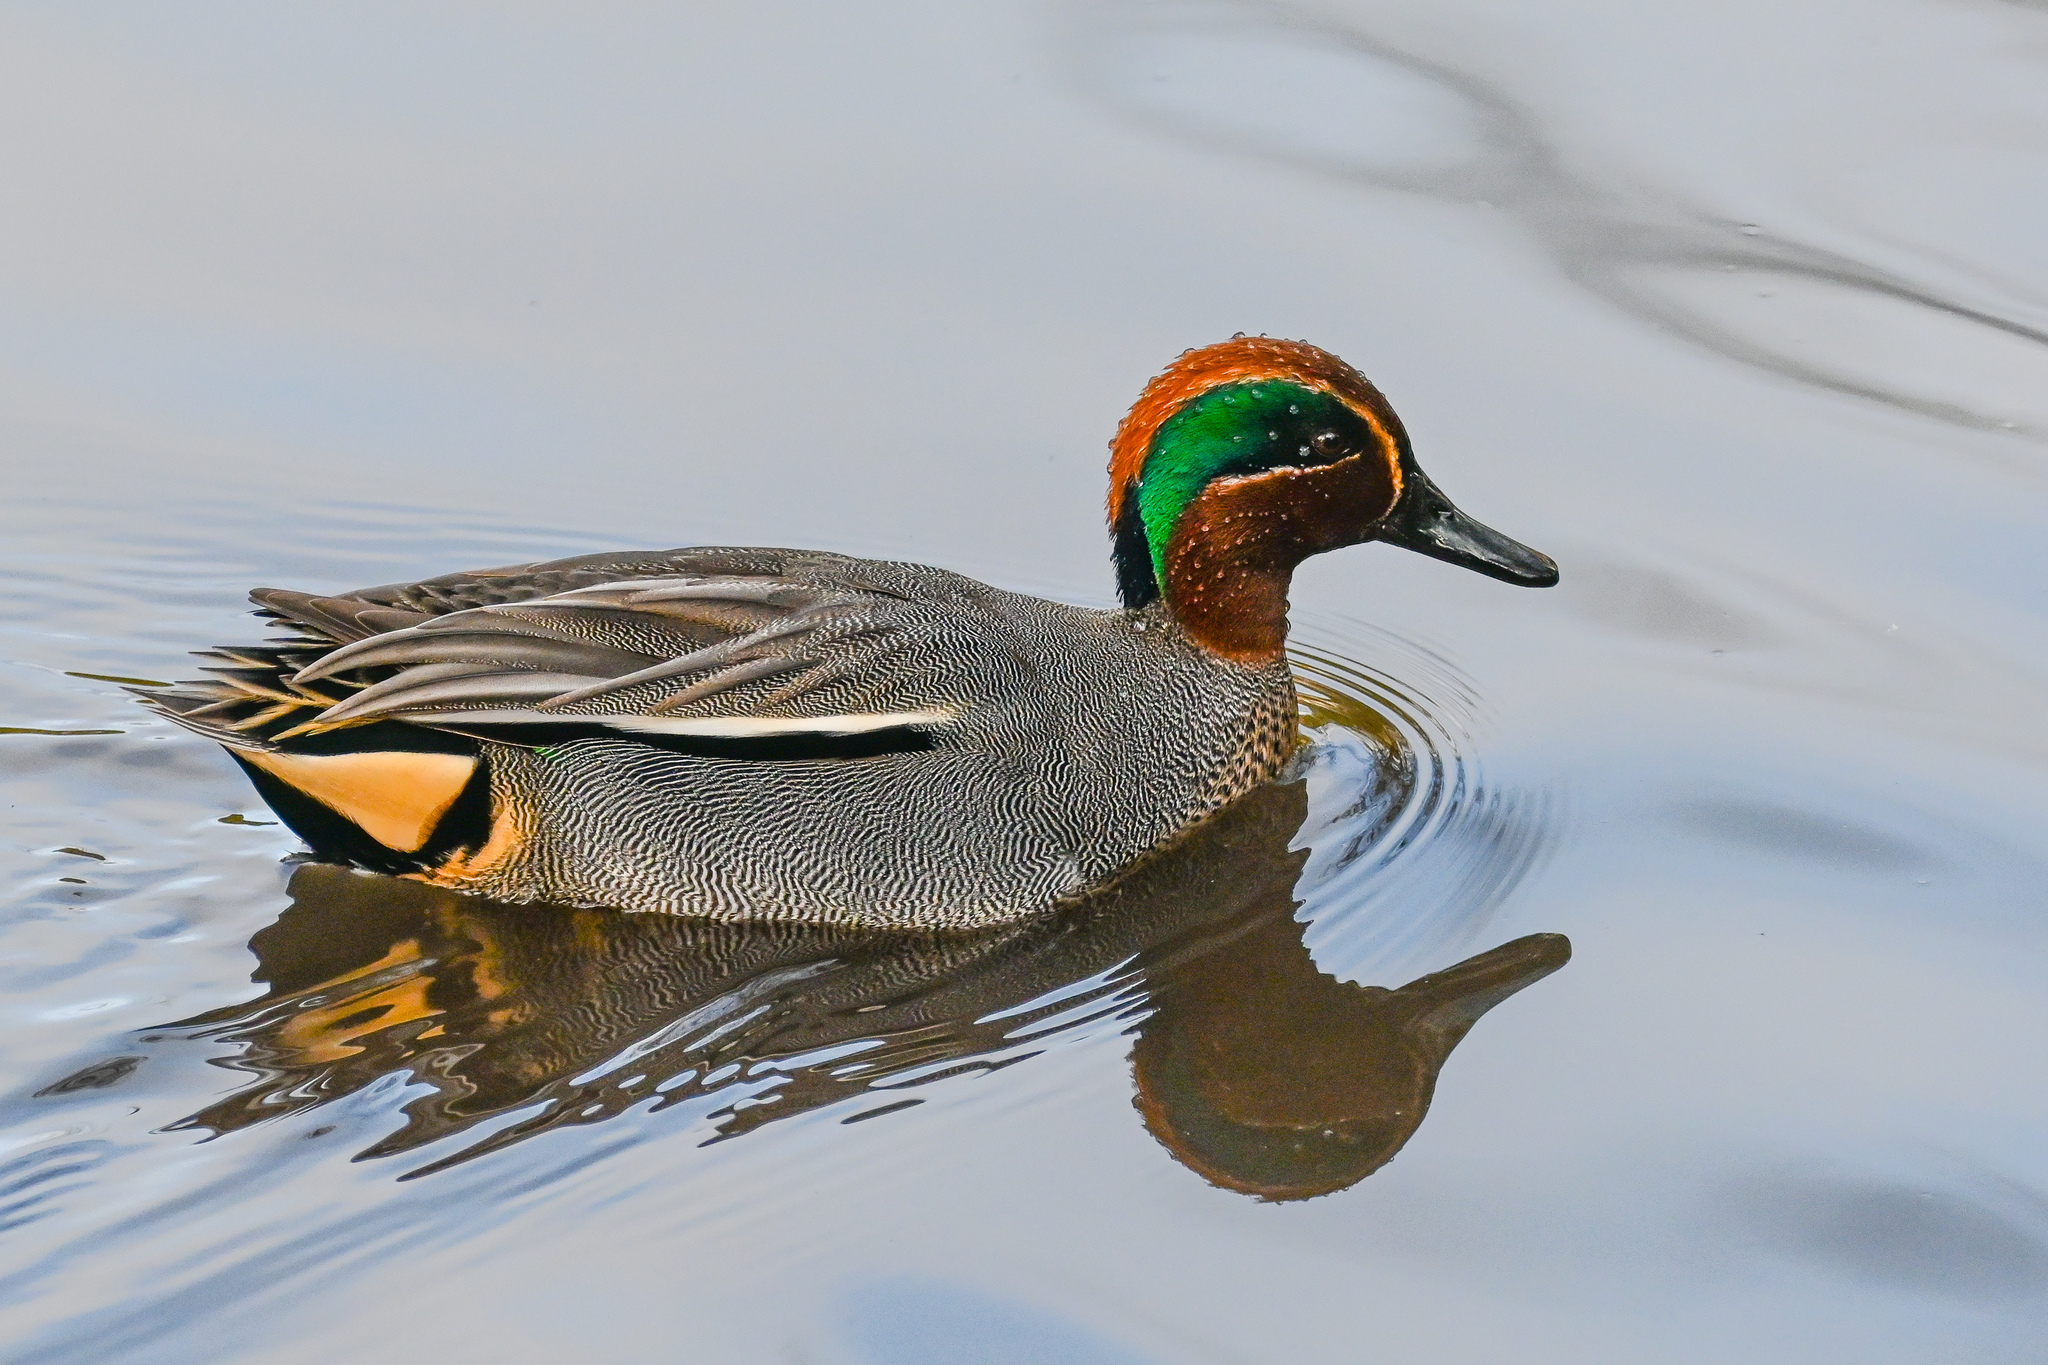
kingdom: Animalia
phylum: Chordata
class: Aves
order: Anseriformes
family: Anatidae
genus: Anas
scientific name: Anas crecca
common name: Eurasian teal
